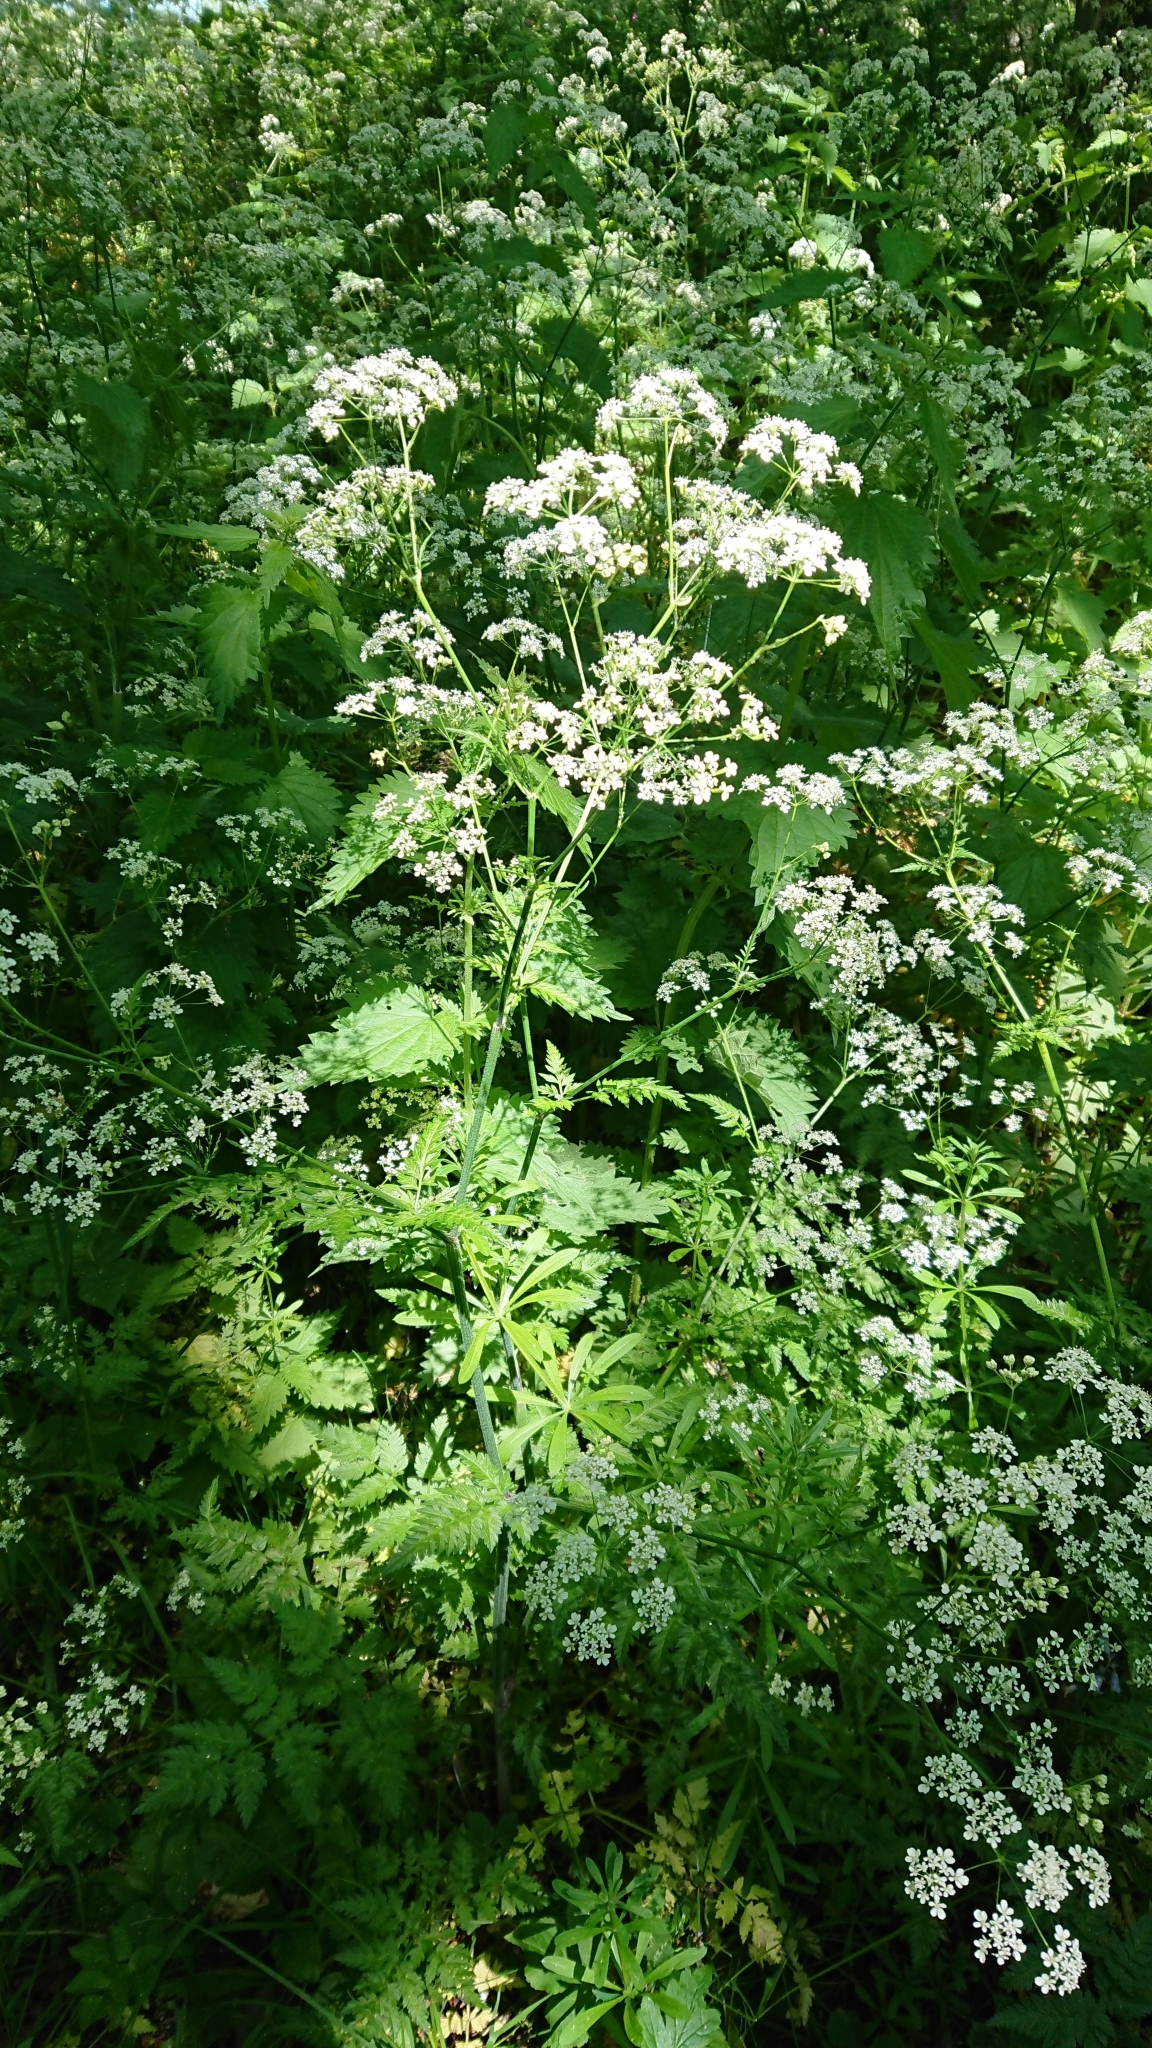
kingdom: Plantae
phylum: Tracheophyta
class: Magnoliopsida
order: Apiales
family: Apiaceae
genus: Anthriscus
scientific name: Anthriscus sylvestris
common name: Cow parsley
